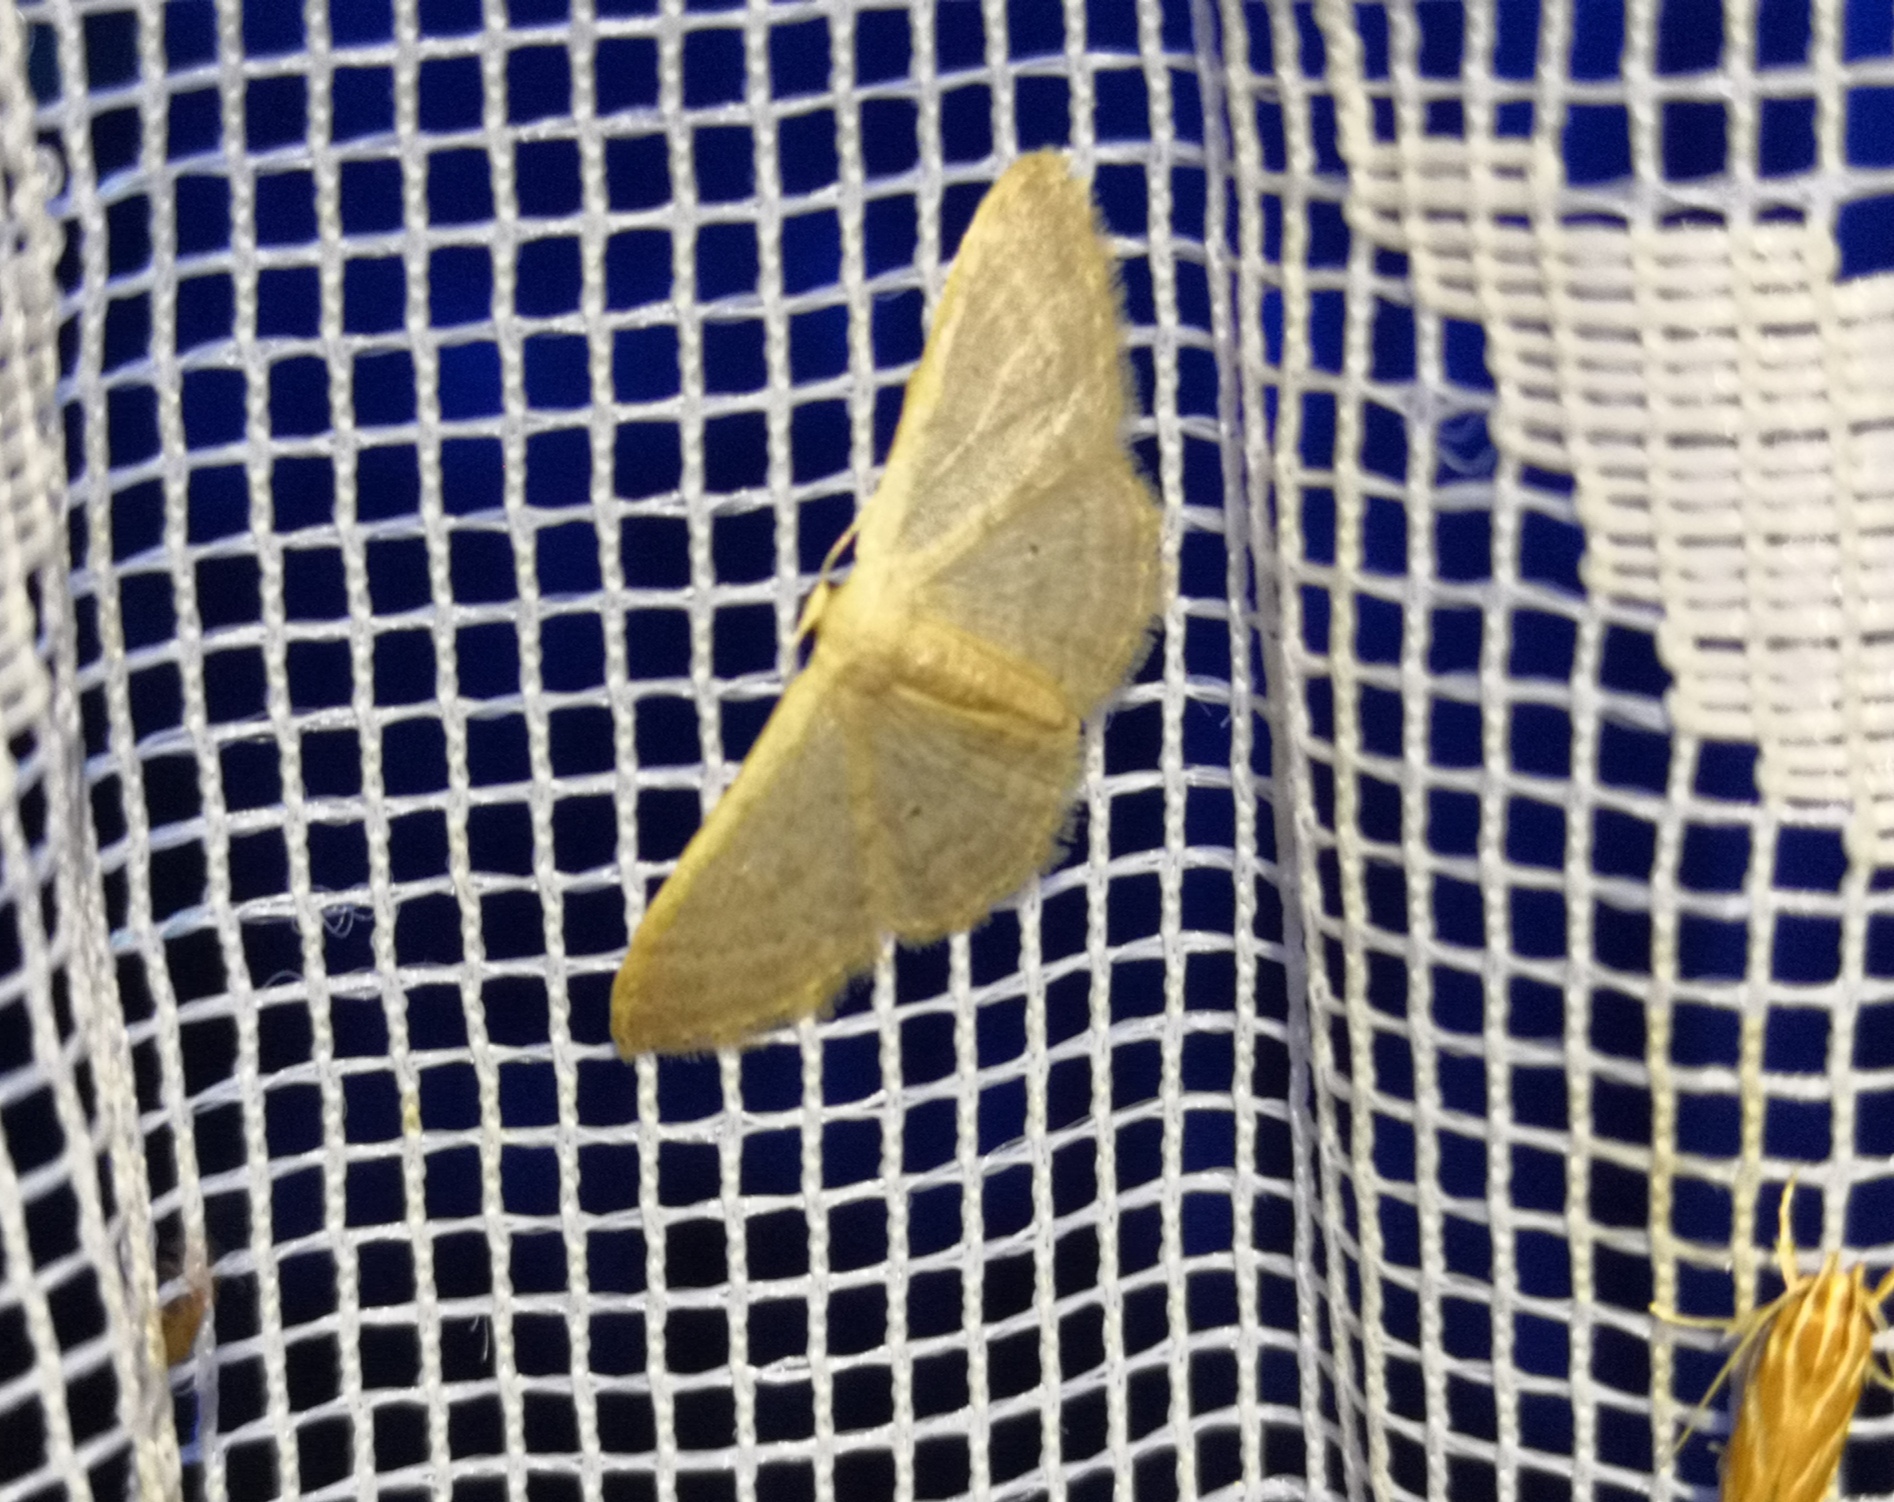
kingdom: Animalia
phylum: Arthropoda
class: Insecta
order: Lepidoptera
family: Geometridae
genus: Idaea
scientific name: Idaea distinctaria
